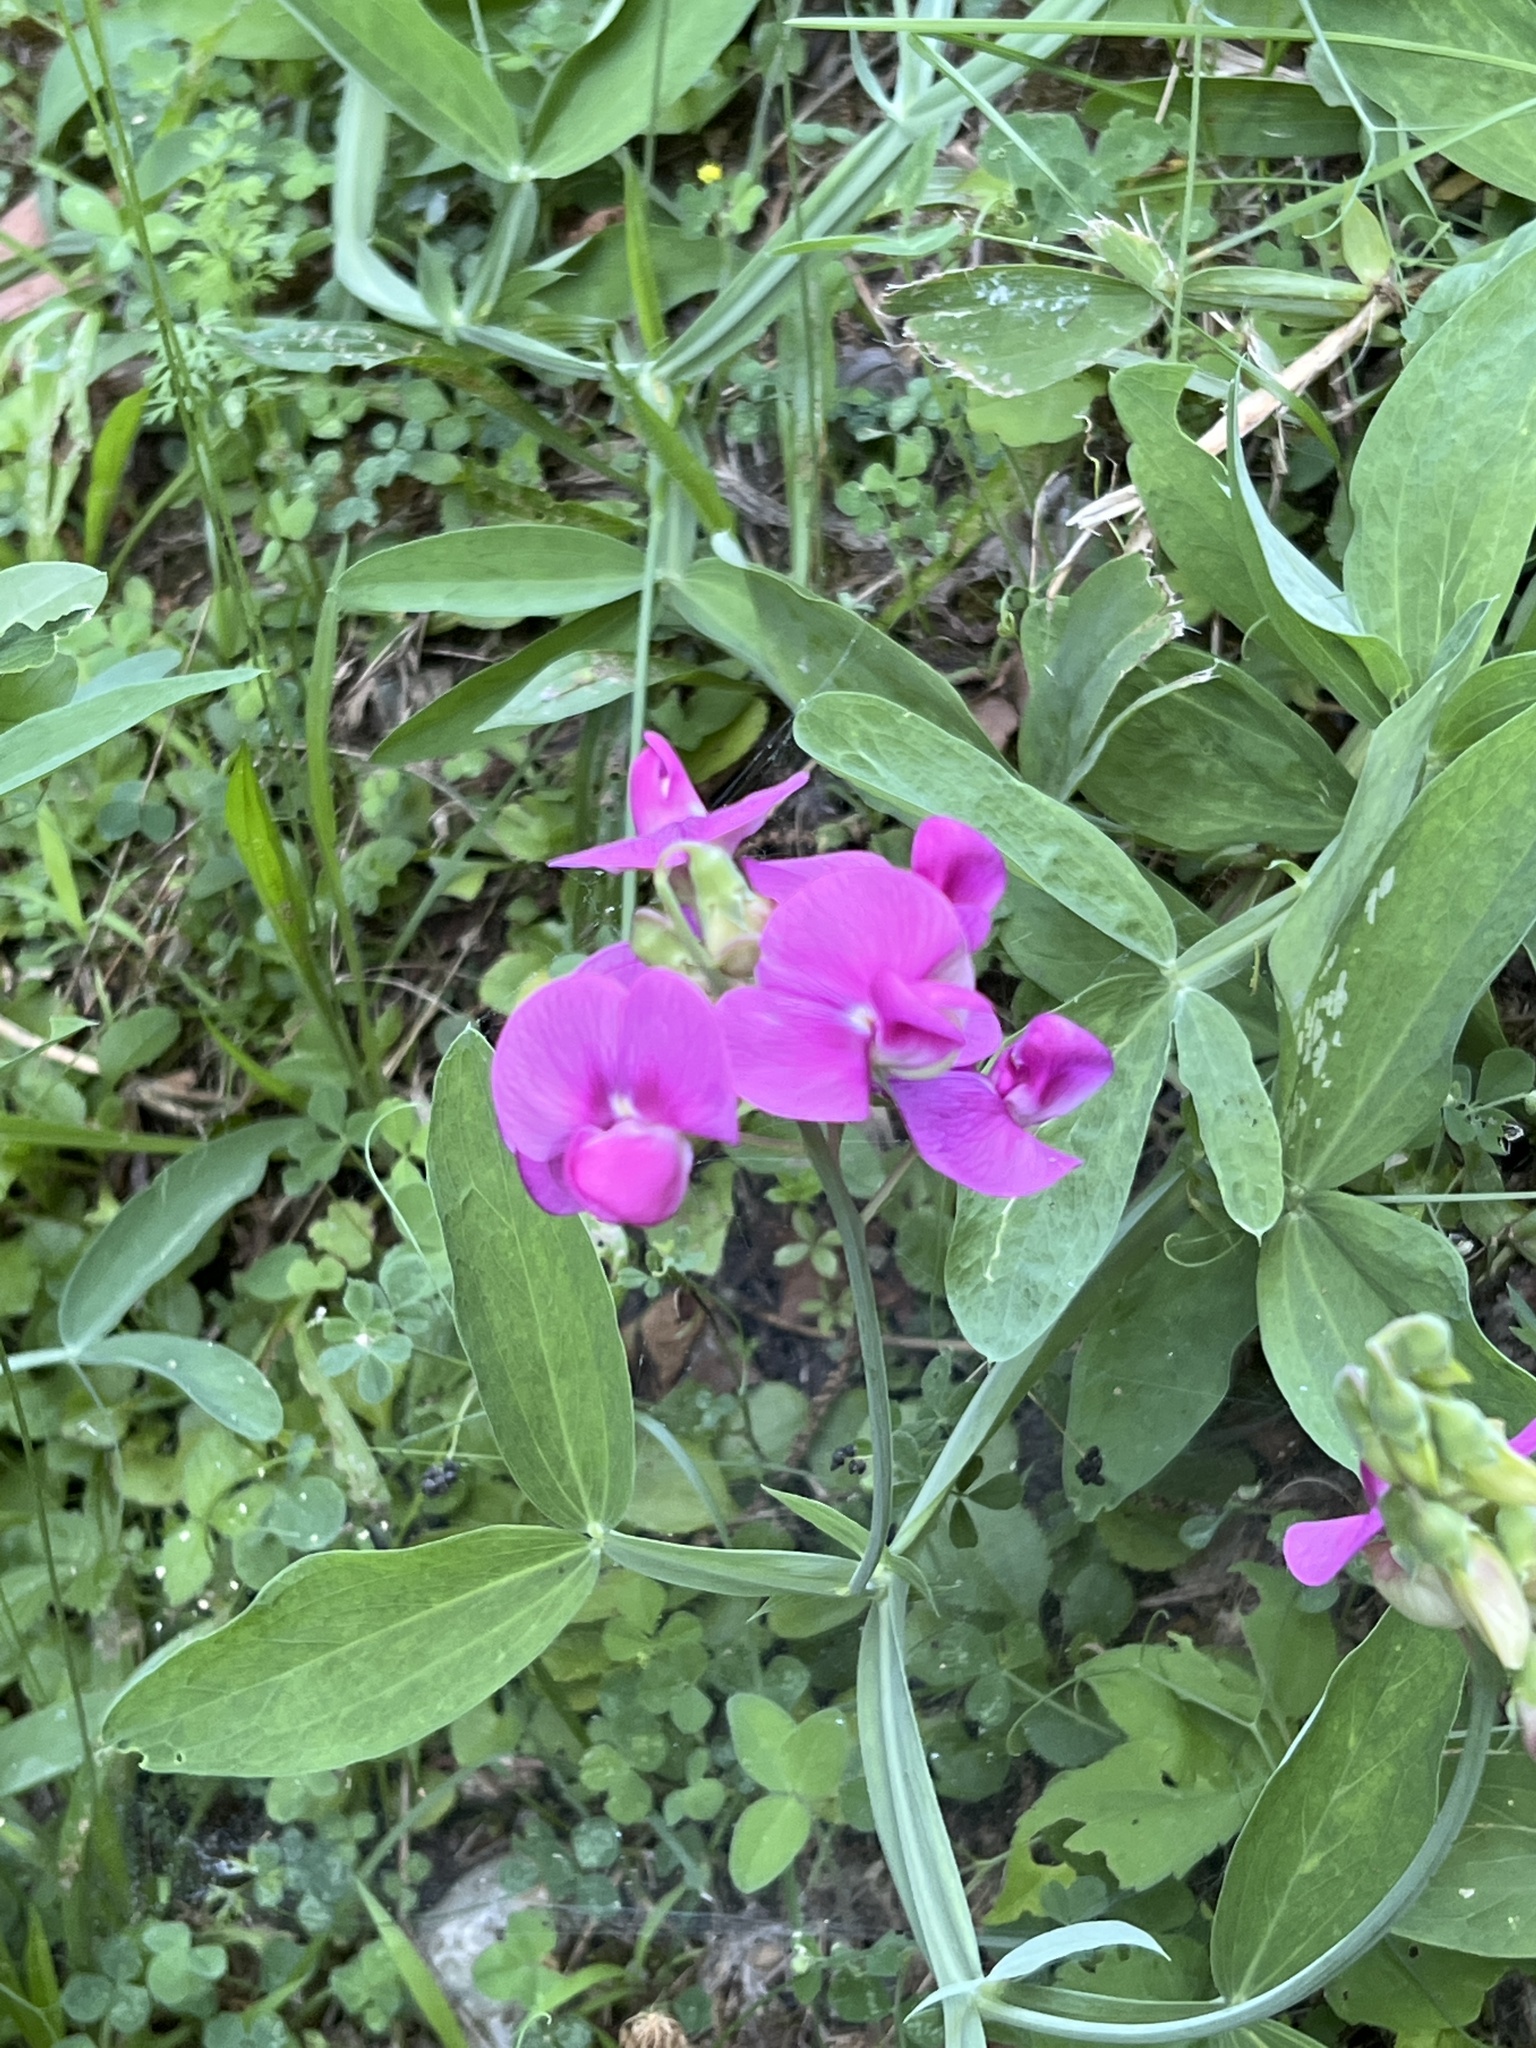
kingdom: Plantae
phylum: Tracheophyta
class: Magnoliopsida
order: Fabales
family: Fabaceae
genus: Lathyrus
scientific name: Lathyrus latifolius
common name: Perennial pea
